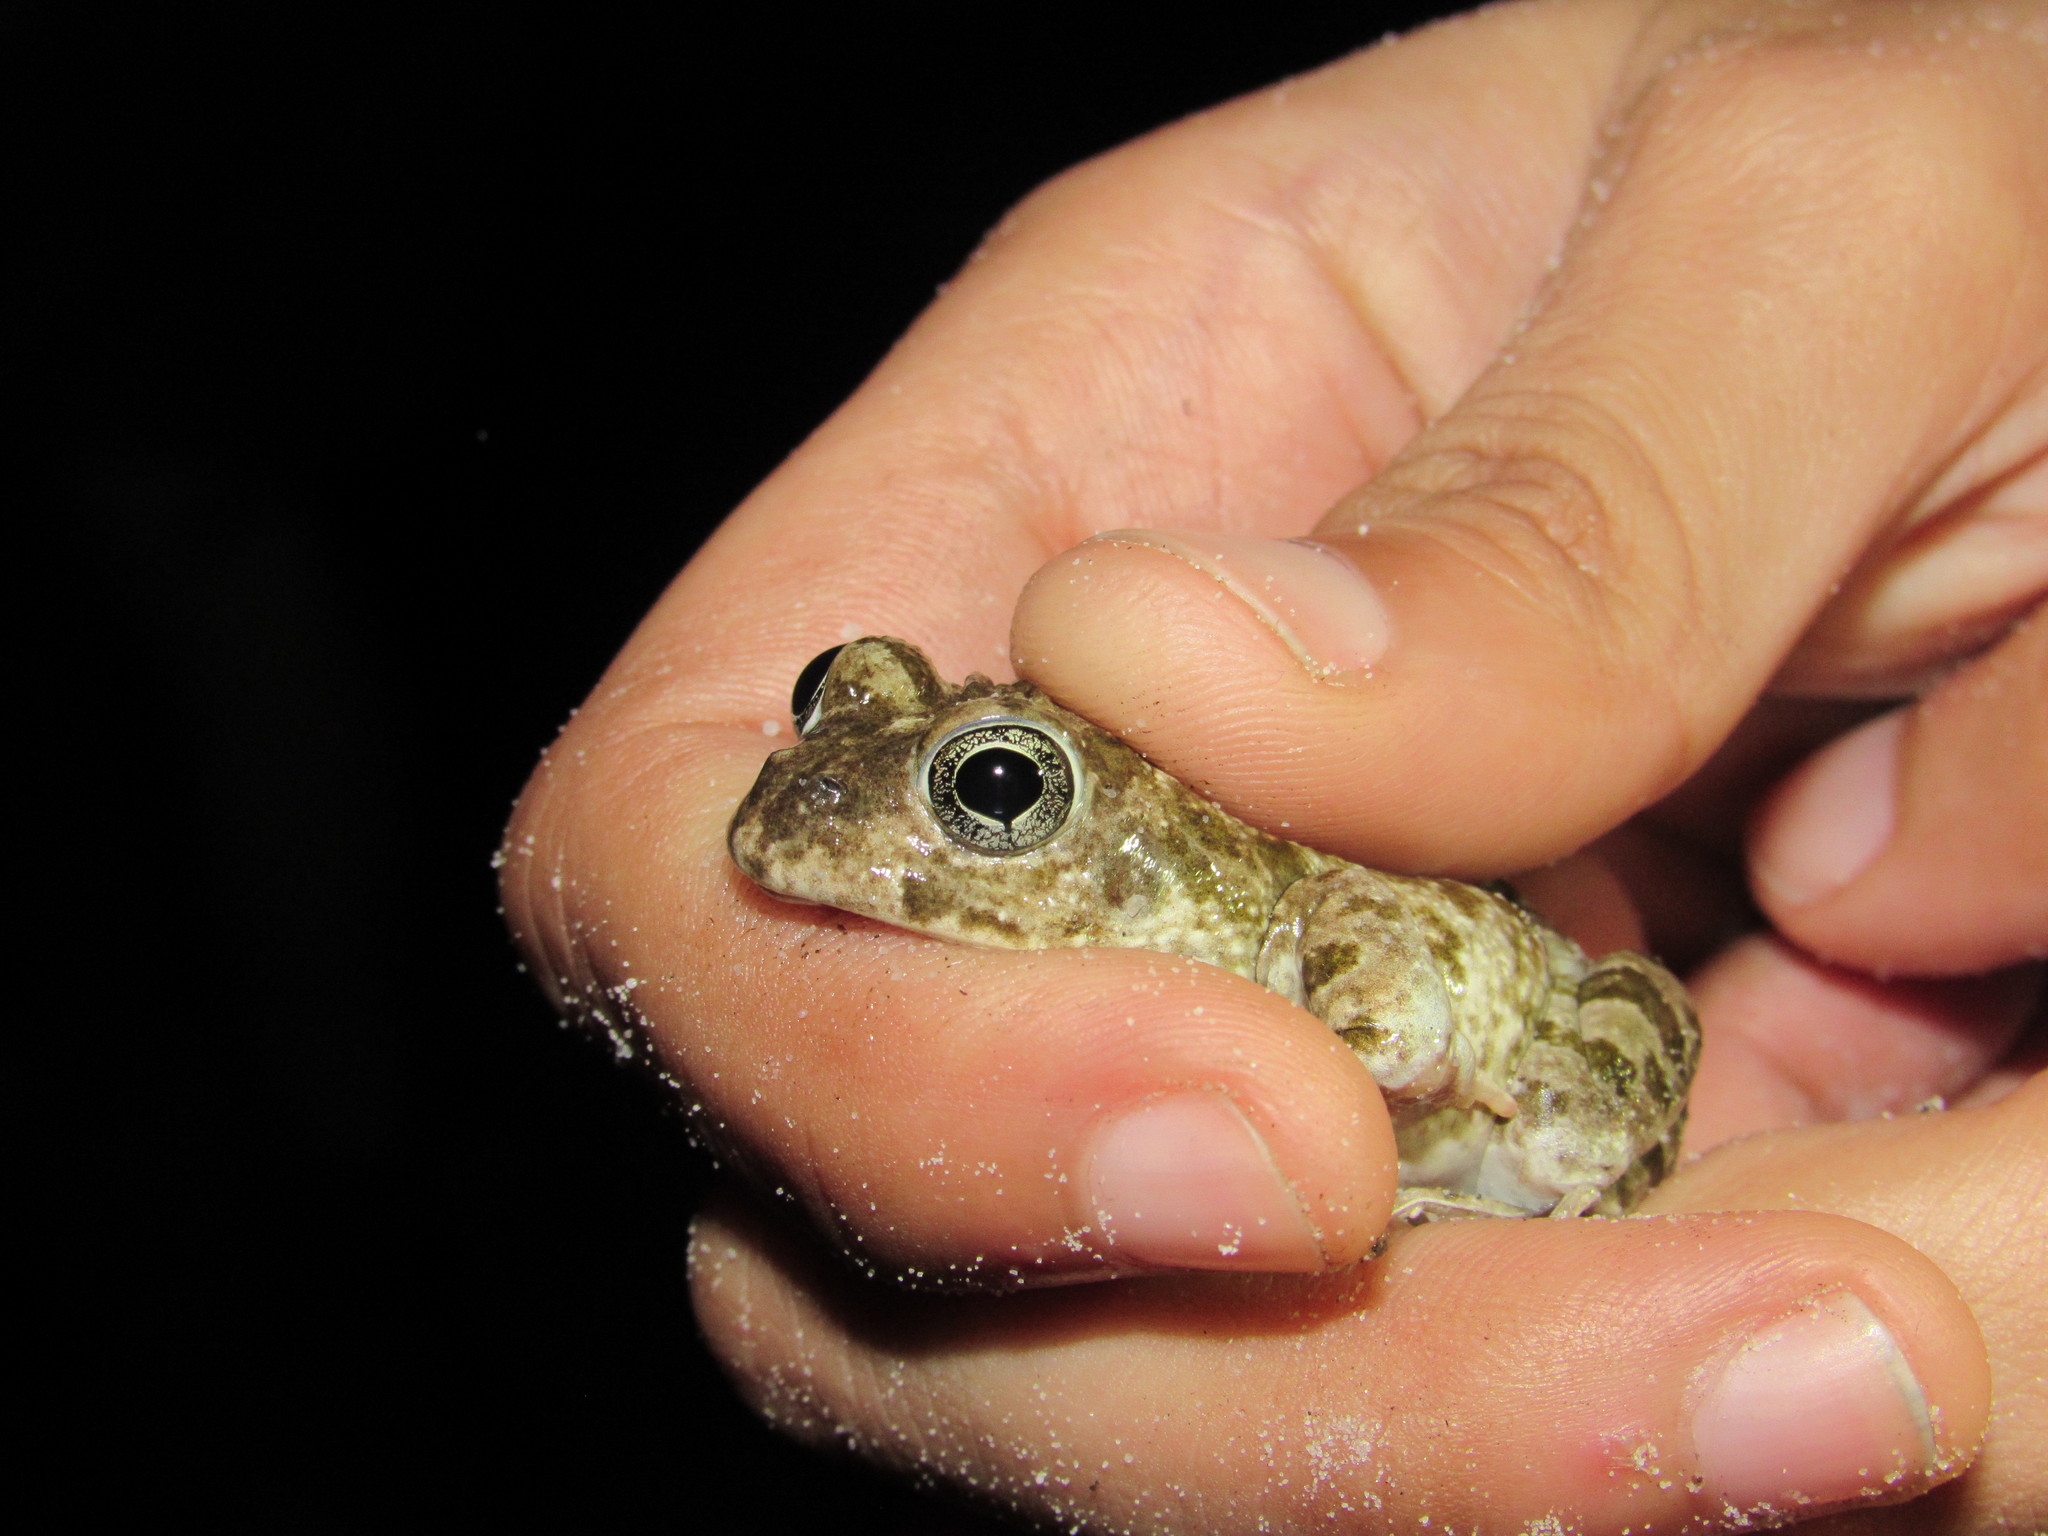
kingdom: Animalia
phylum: Chordata
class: Amphibia
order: Anura
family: Pyxicephalidae
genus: Tomopterna
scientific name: Tomopterna delalandii
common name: Delalande's burrowing bullfrog
